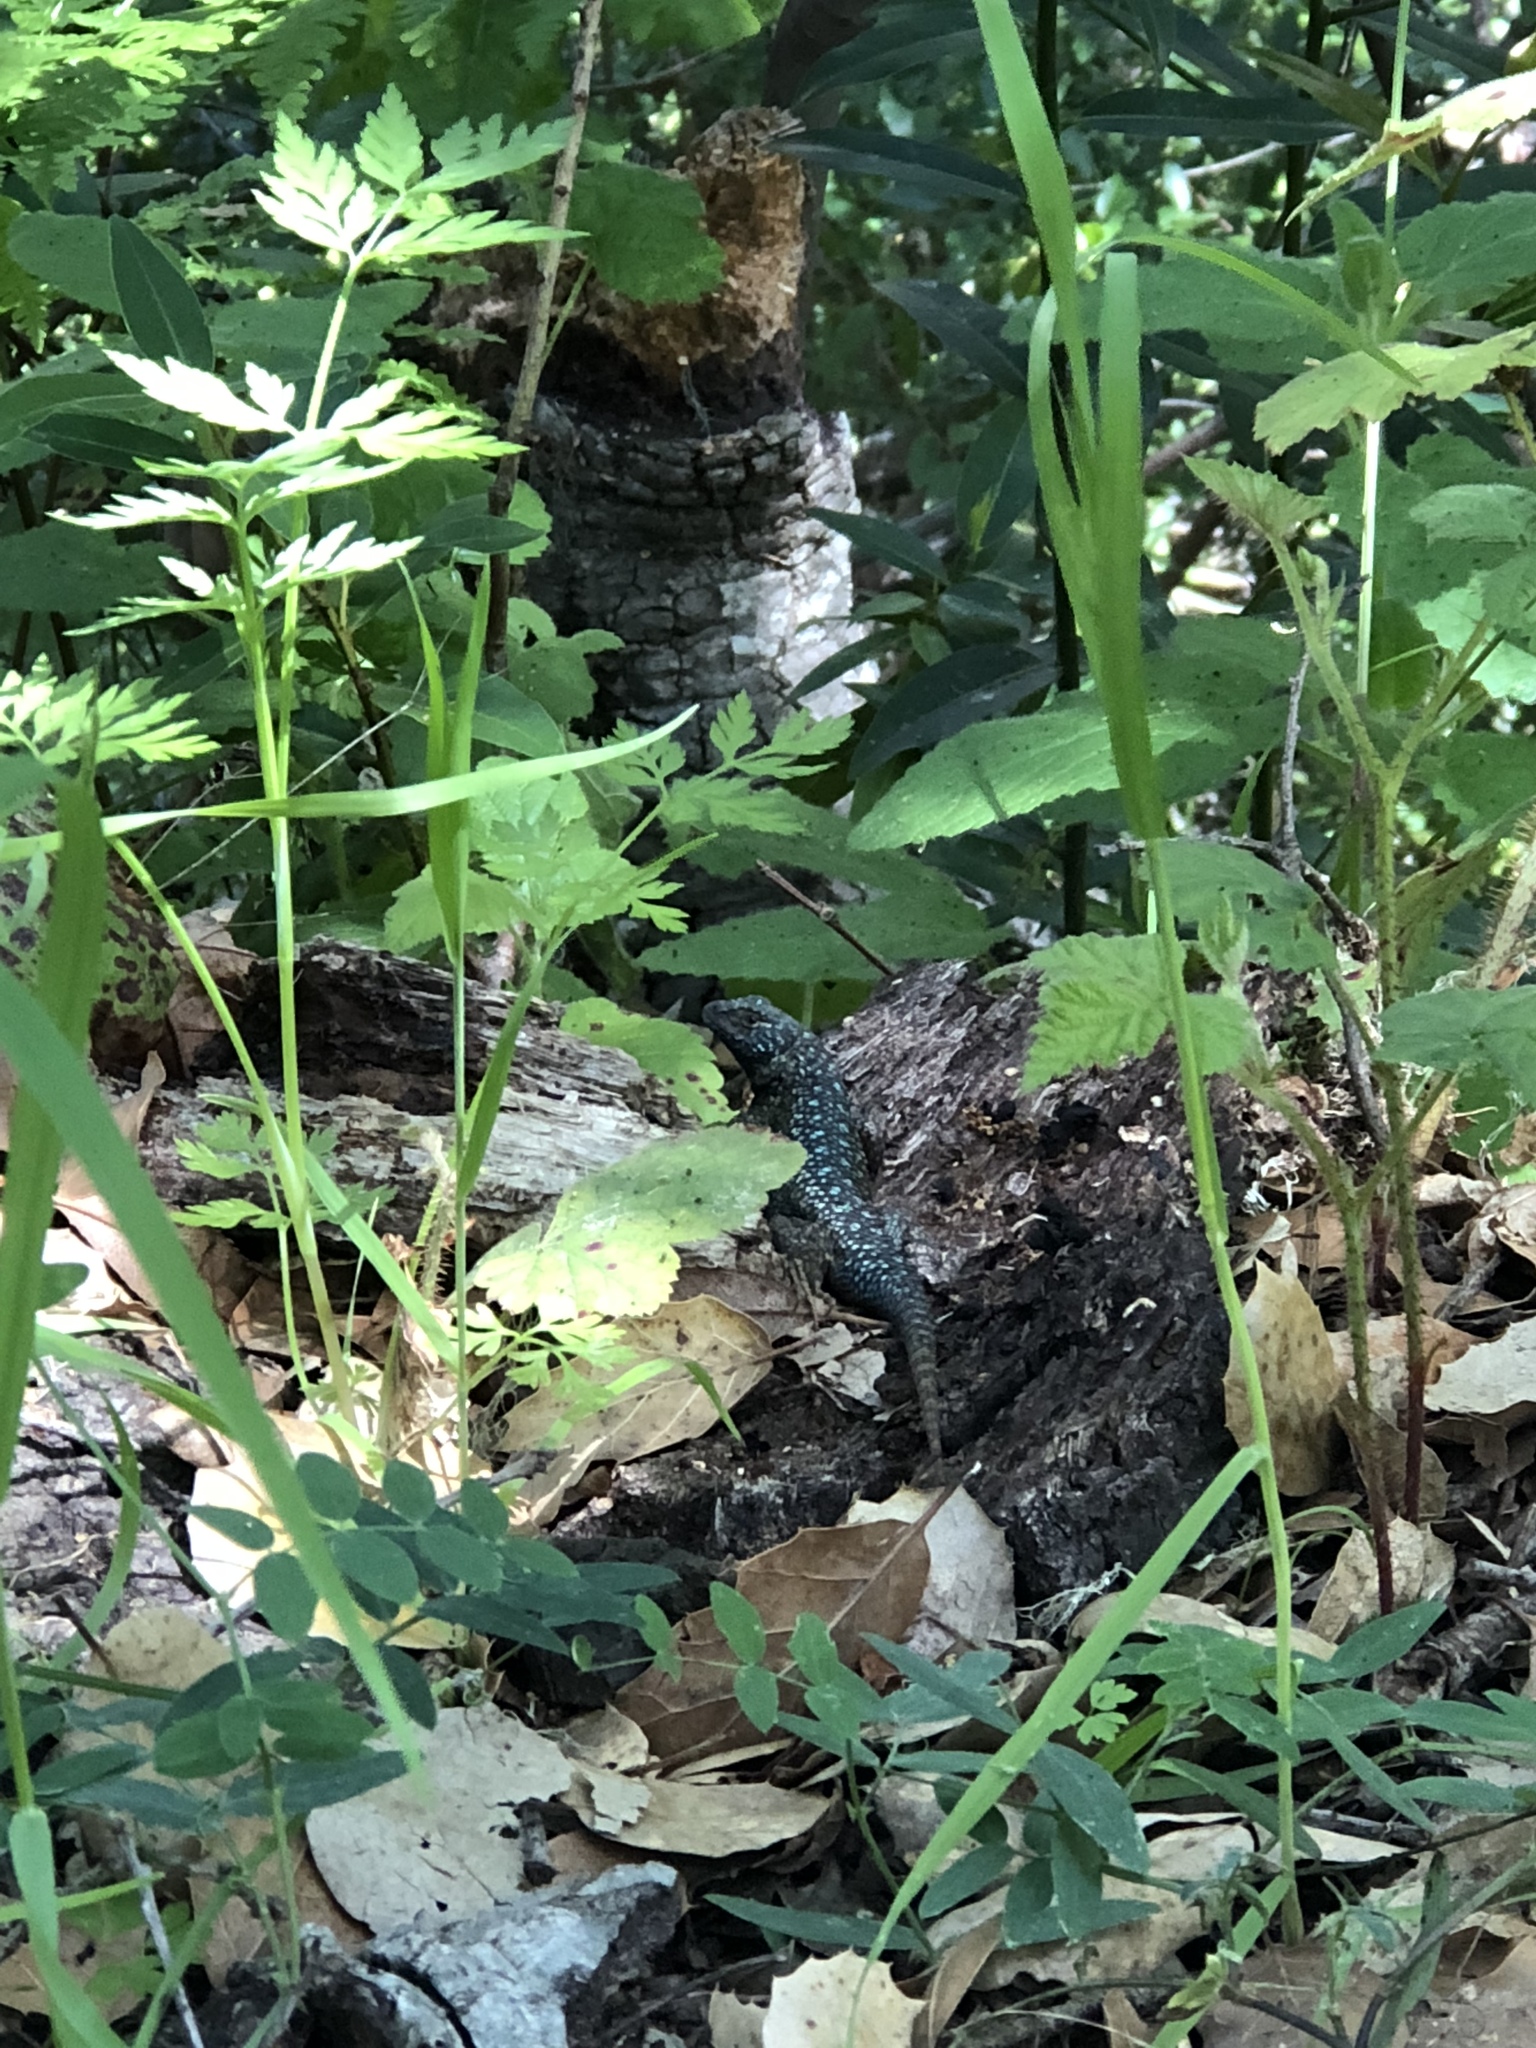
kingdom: Animalia
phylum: Chordata
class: Squamata
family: Phrynosomatidae
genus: Sceloporus
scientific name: Sceloporus occidentalis
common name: Western fence lizard
